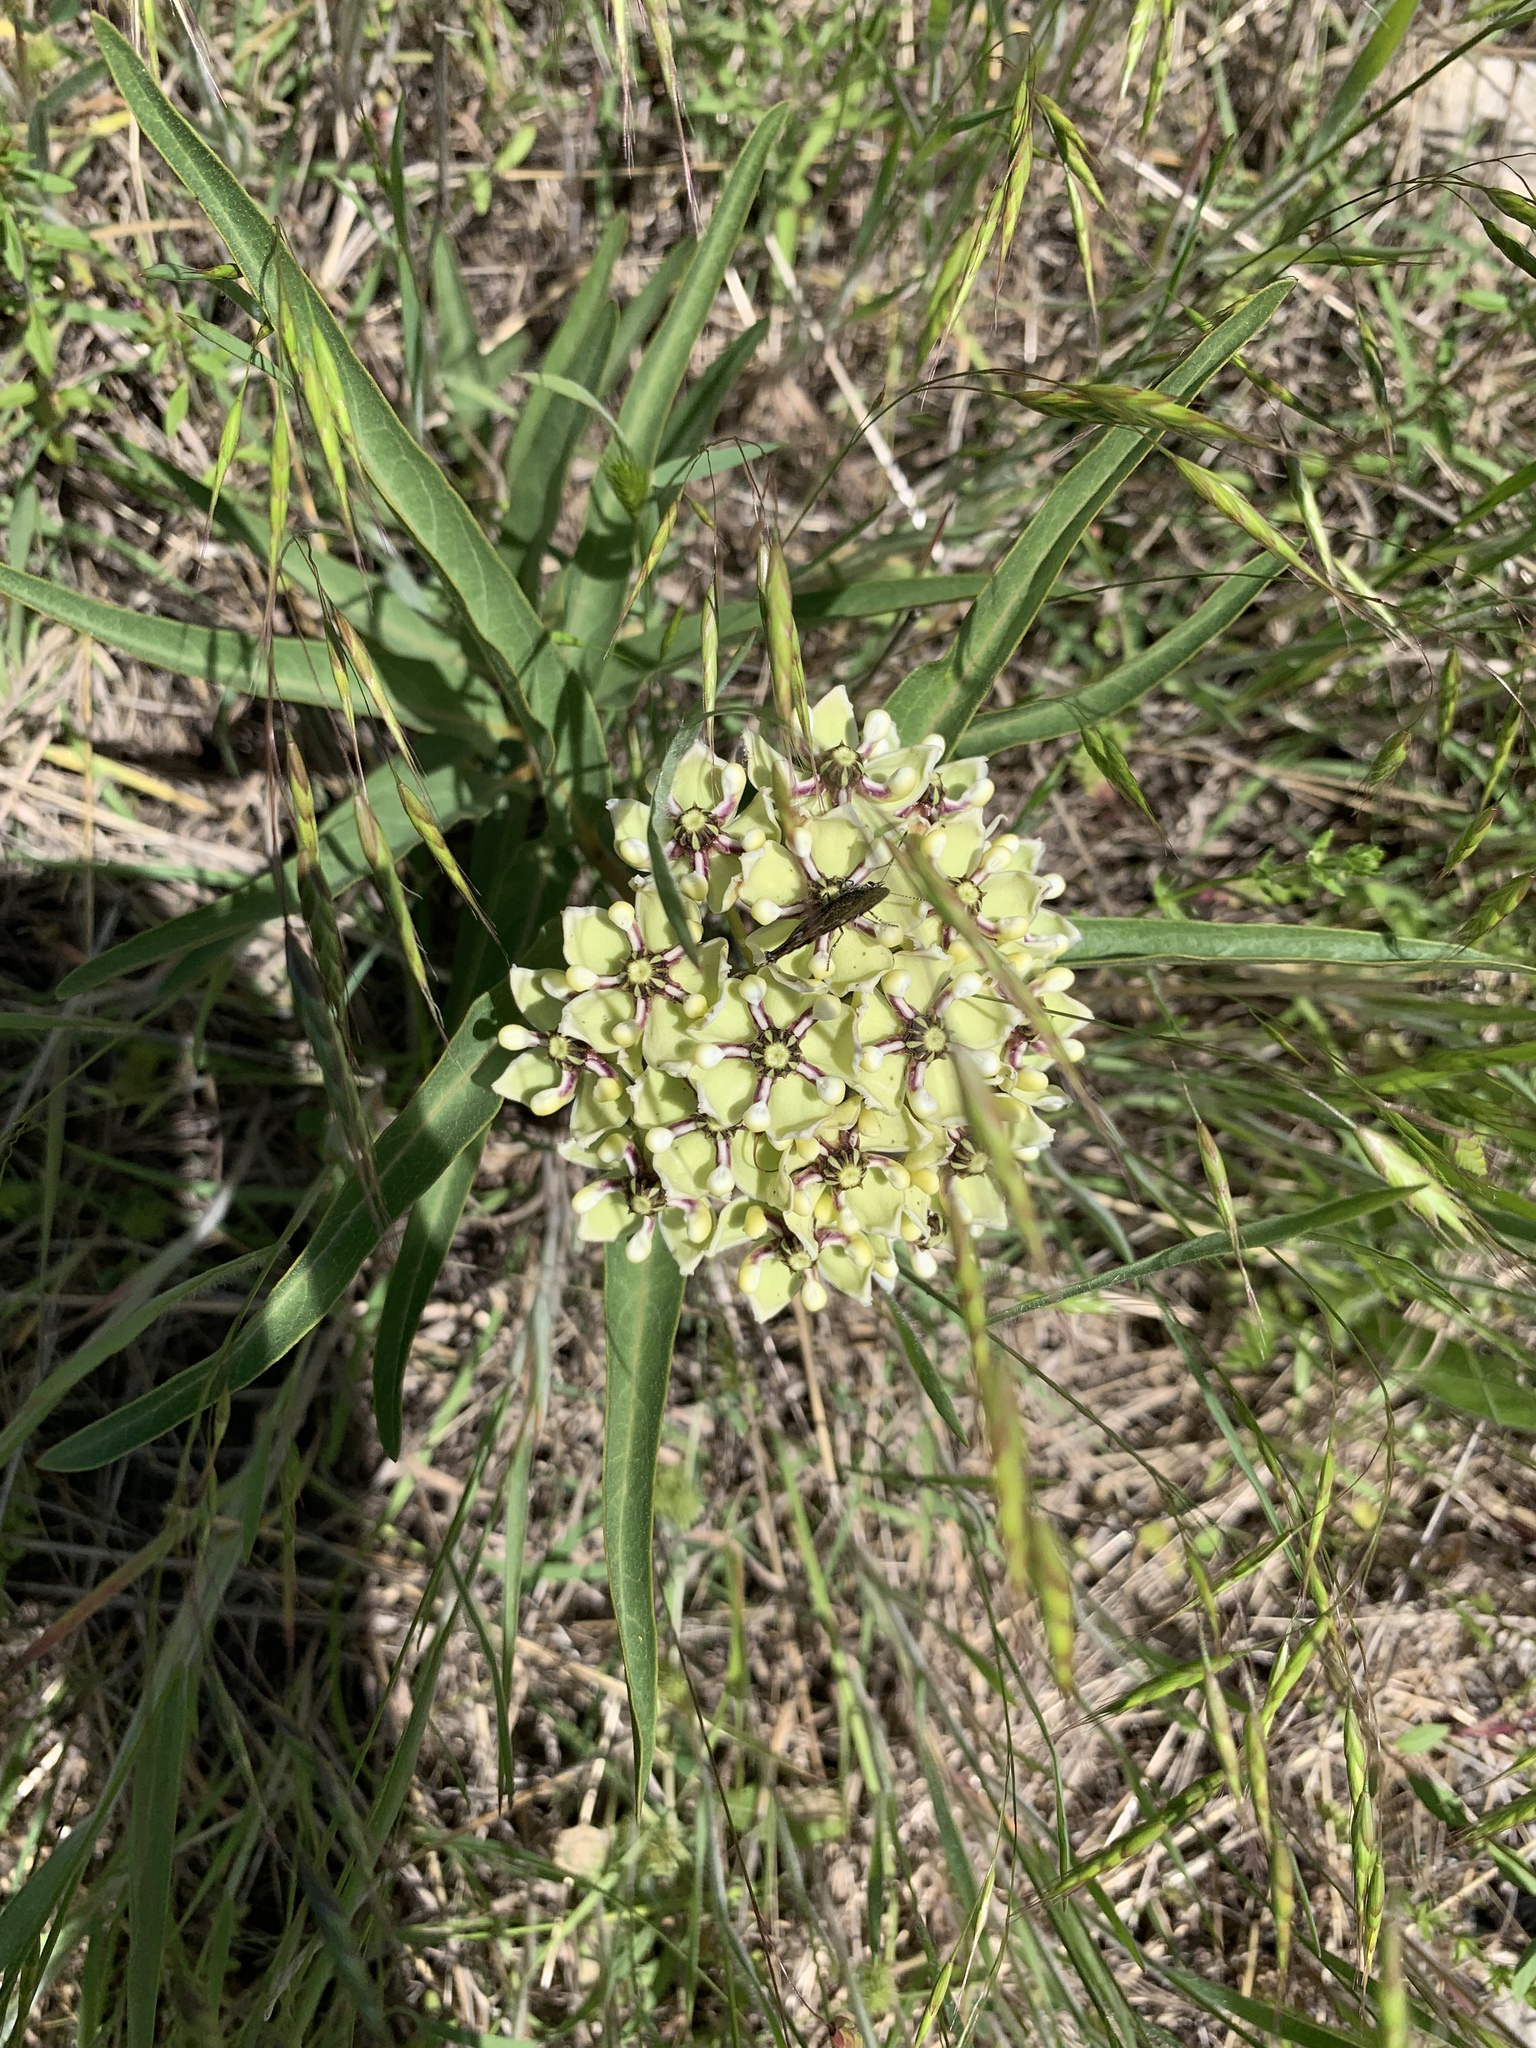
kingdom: Plantae
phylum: Tracheophyta
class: Magnoliopsida
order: Gentianales
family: Apocynaceae
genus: Asclepias
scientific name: Asclepias asperula
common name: Antelope horns
